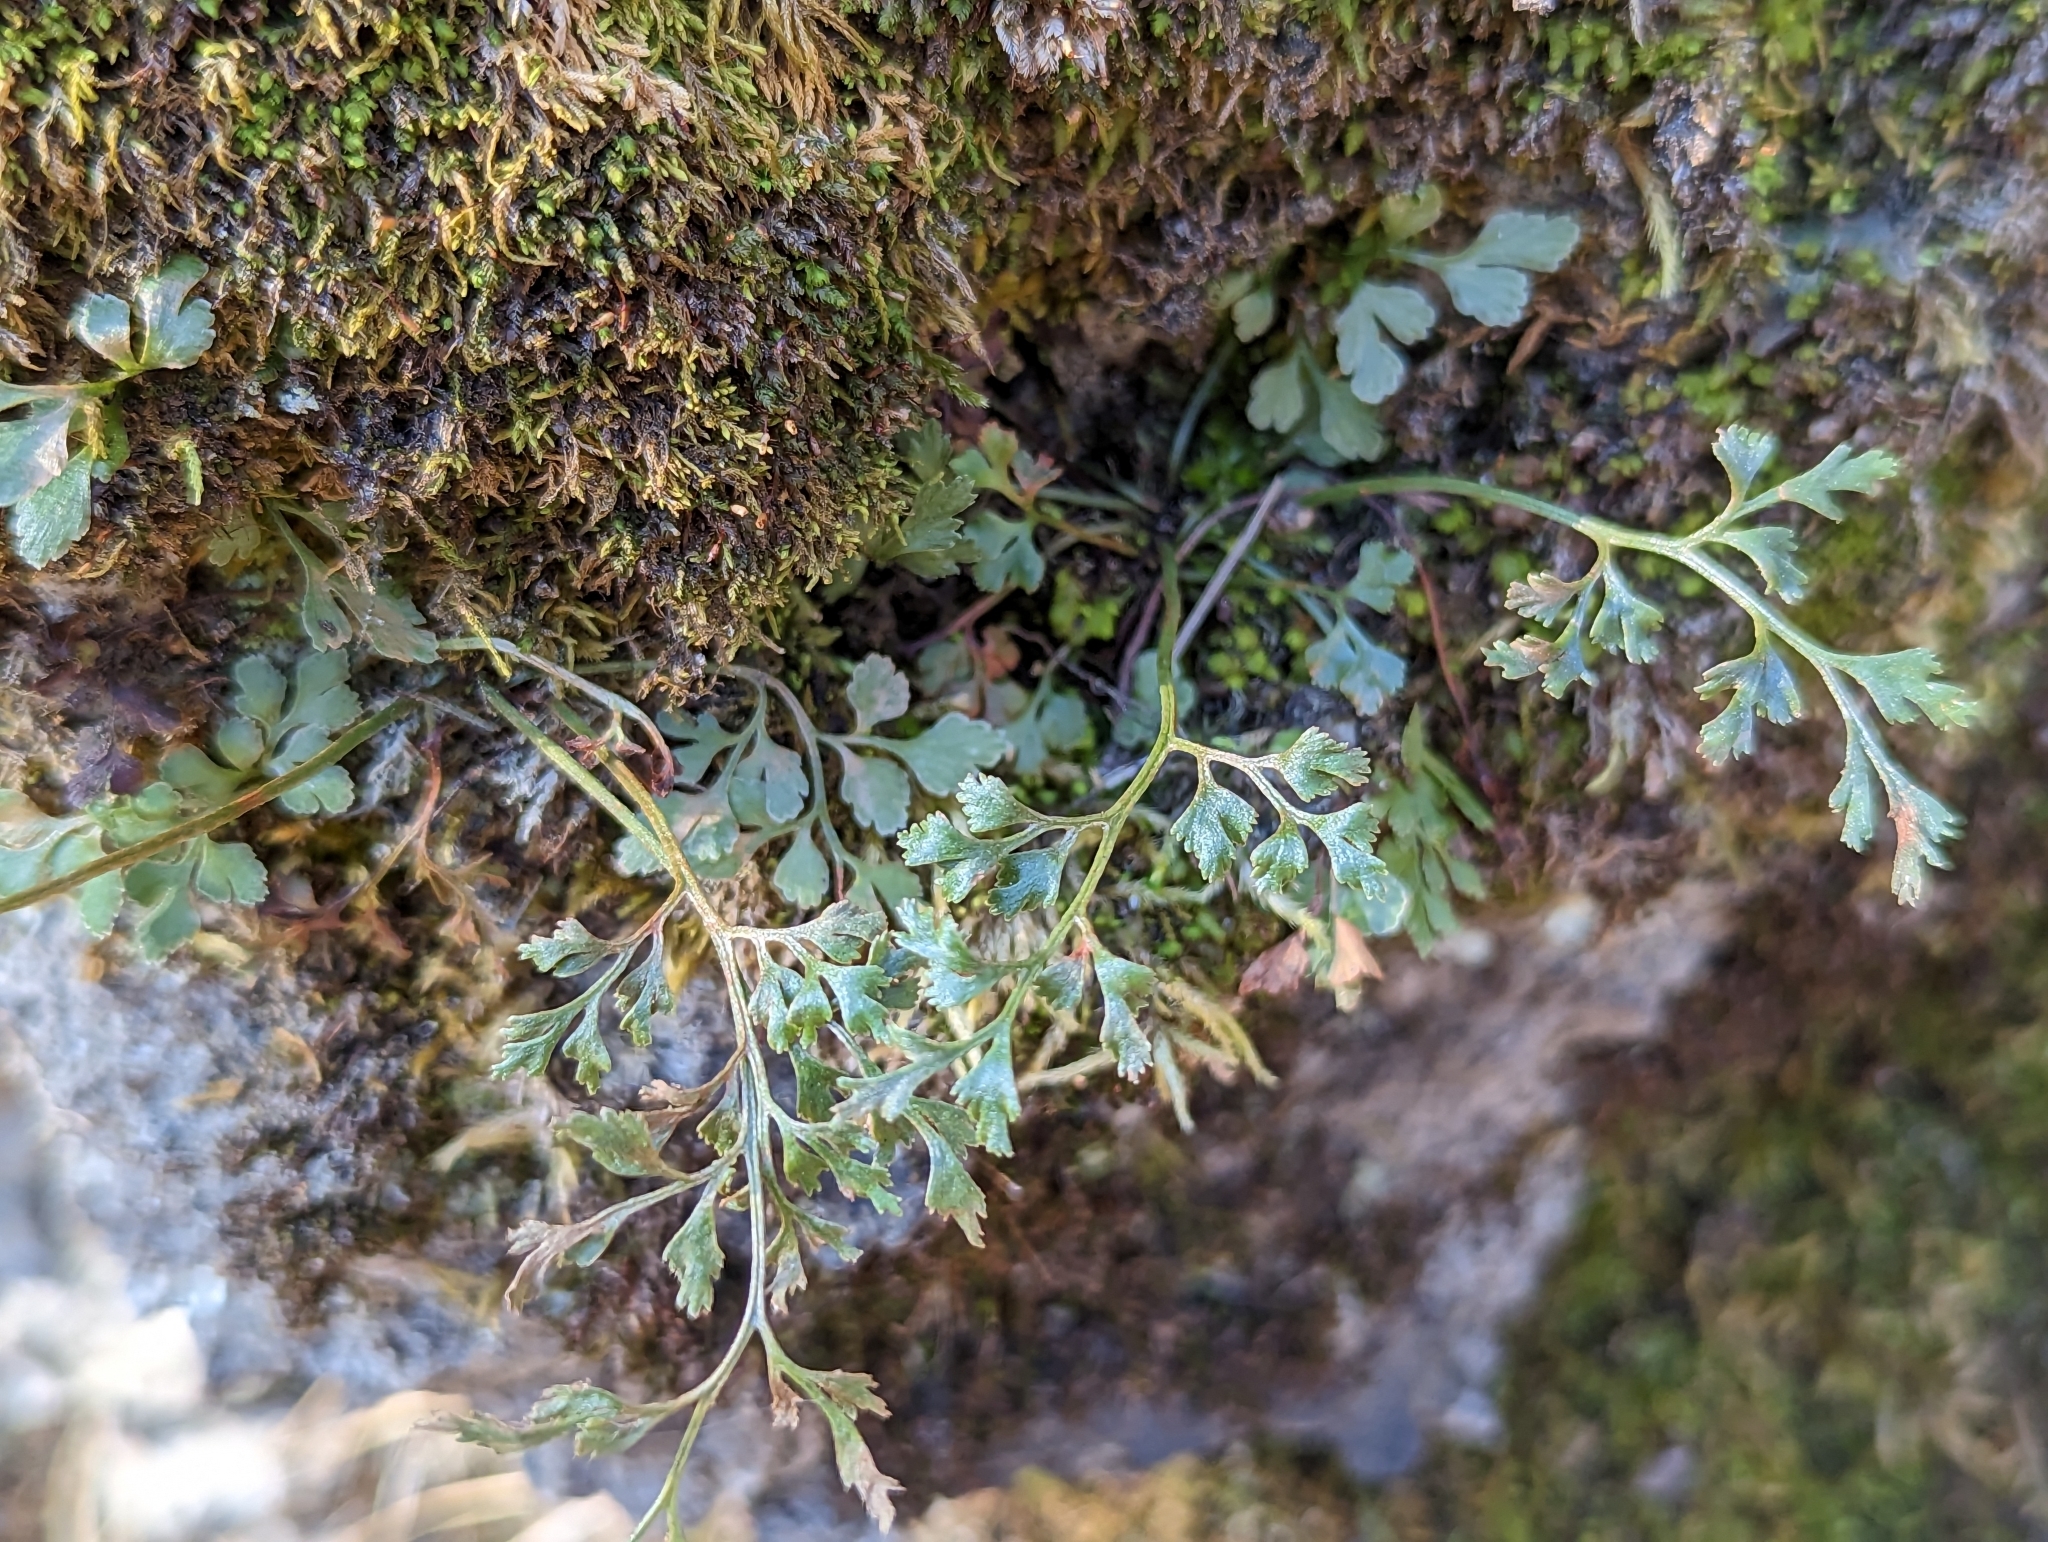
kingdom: Plantae
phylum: Tracheophyta
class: Polypodiopsida
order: Polypodiales
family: Aspleniaceae
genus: Asplenium
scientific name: Asplenium ruta-muraria
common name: Wall-rue
